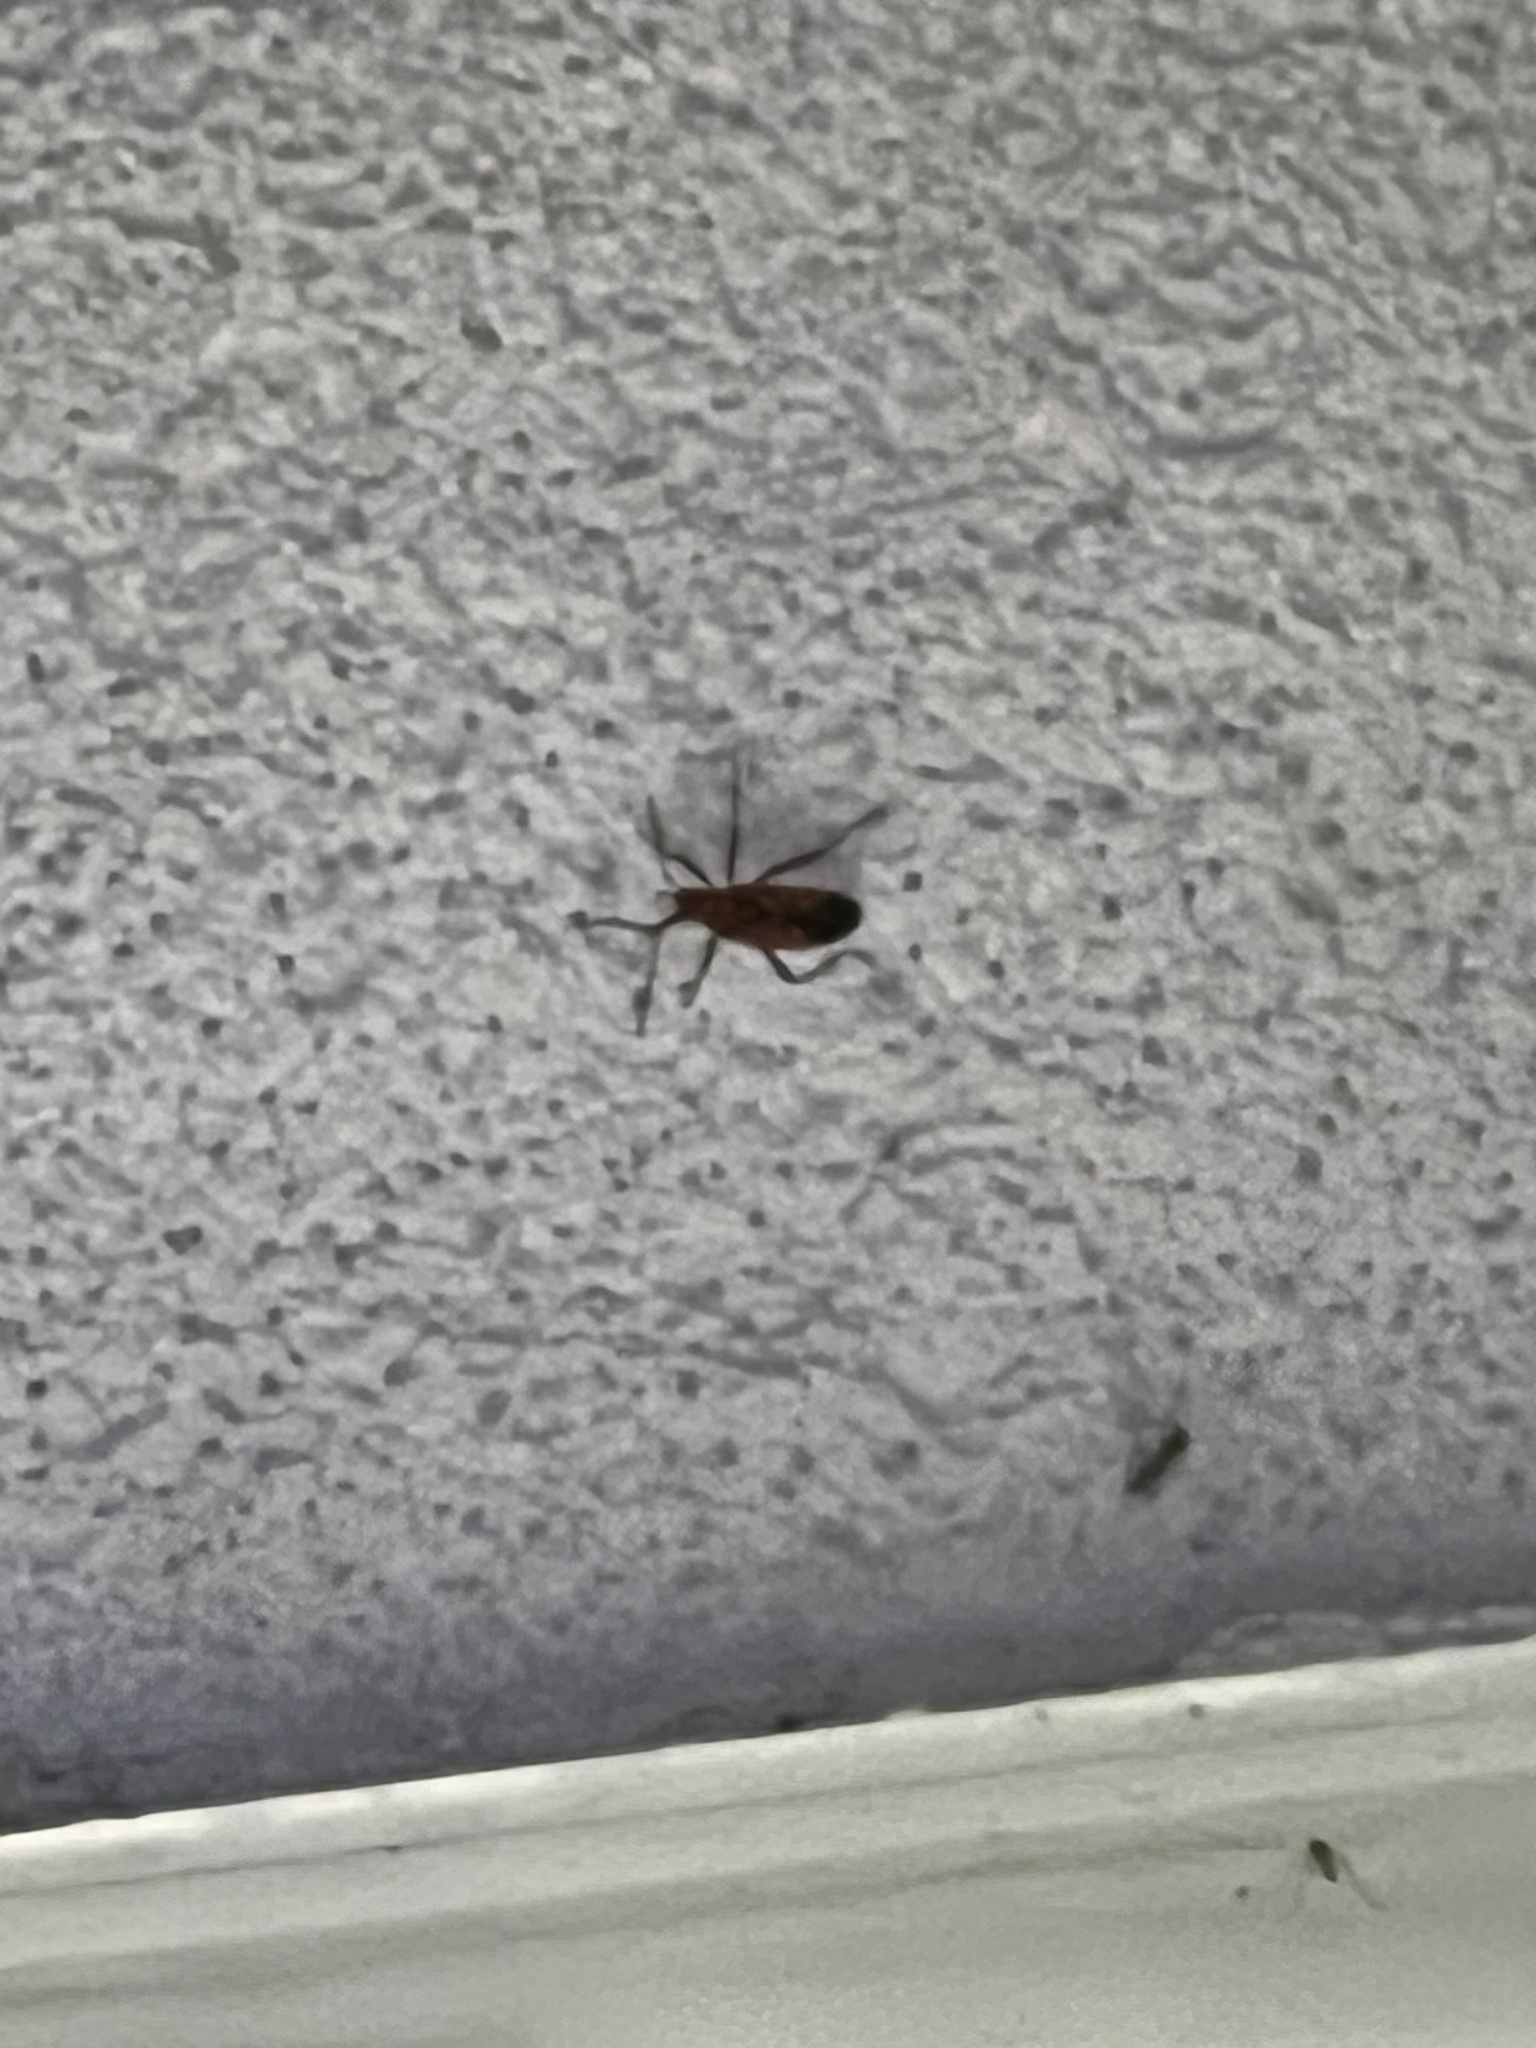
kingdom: Animalia
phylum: Arthropoda
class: Insecta
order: Hemiptera
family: Pyrrhocoridae
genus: Dysdercus
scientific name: Dysdercus andreae
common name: St. andrew's cotton stainer
